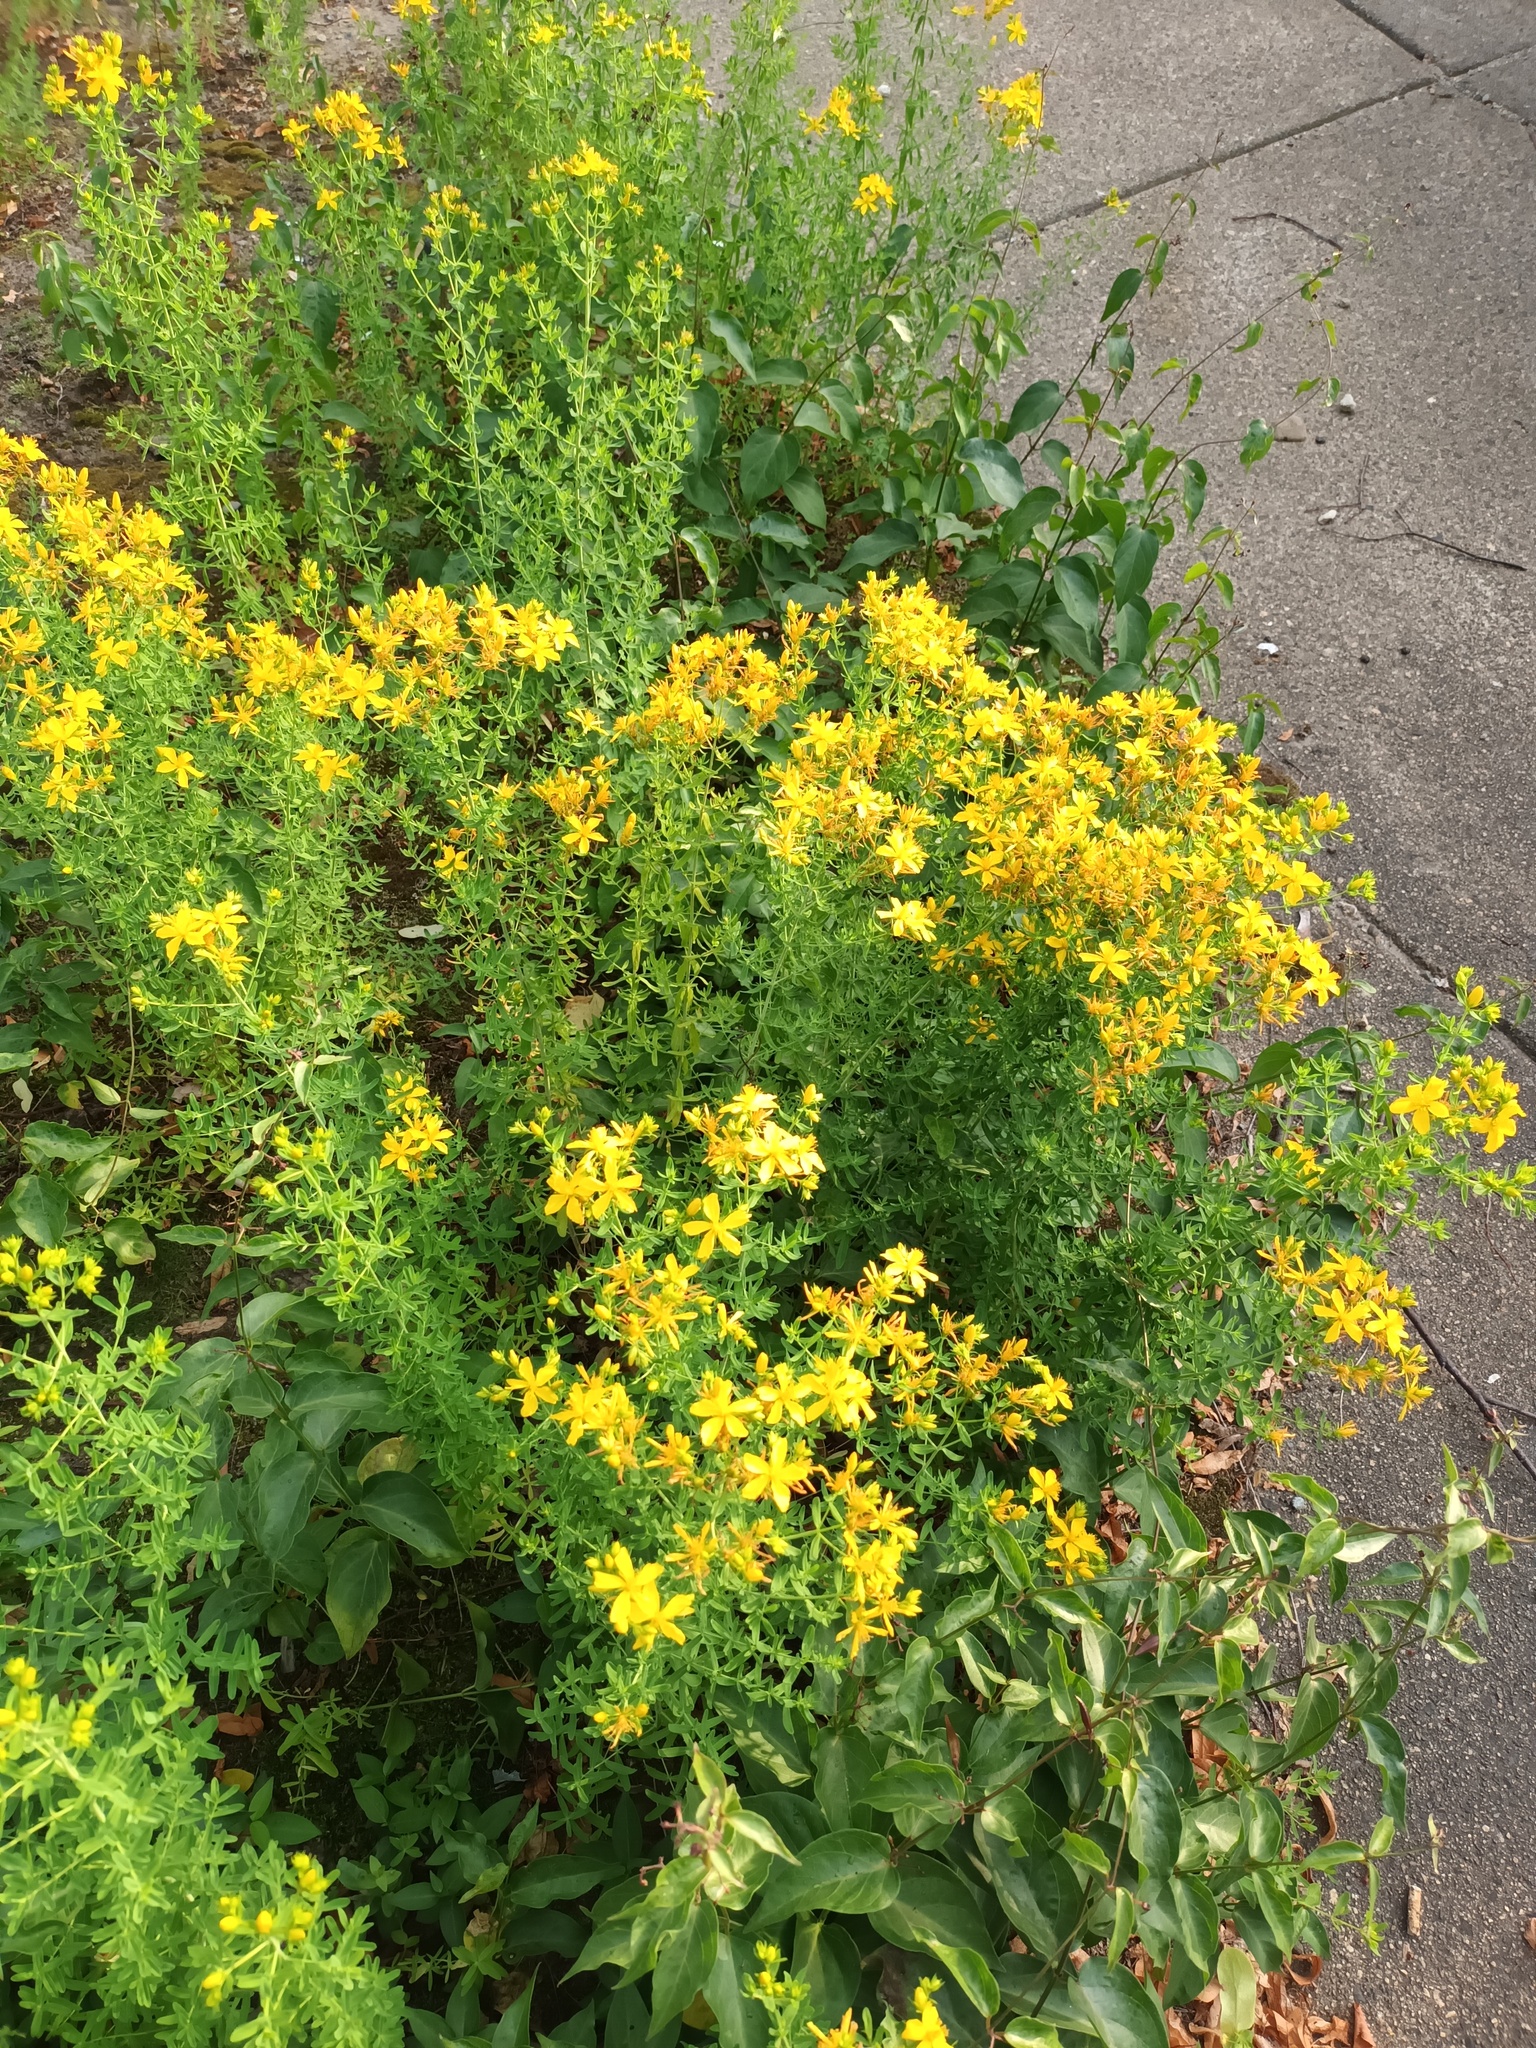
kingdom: Plantae
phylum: Tracheophyta
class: Magnoliopsida
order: Malpighiales
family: Hypericaceae
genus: Hypericum
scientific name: Hypericum perforatum
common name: Common st. johnswort
